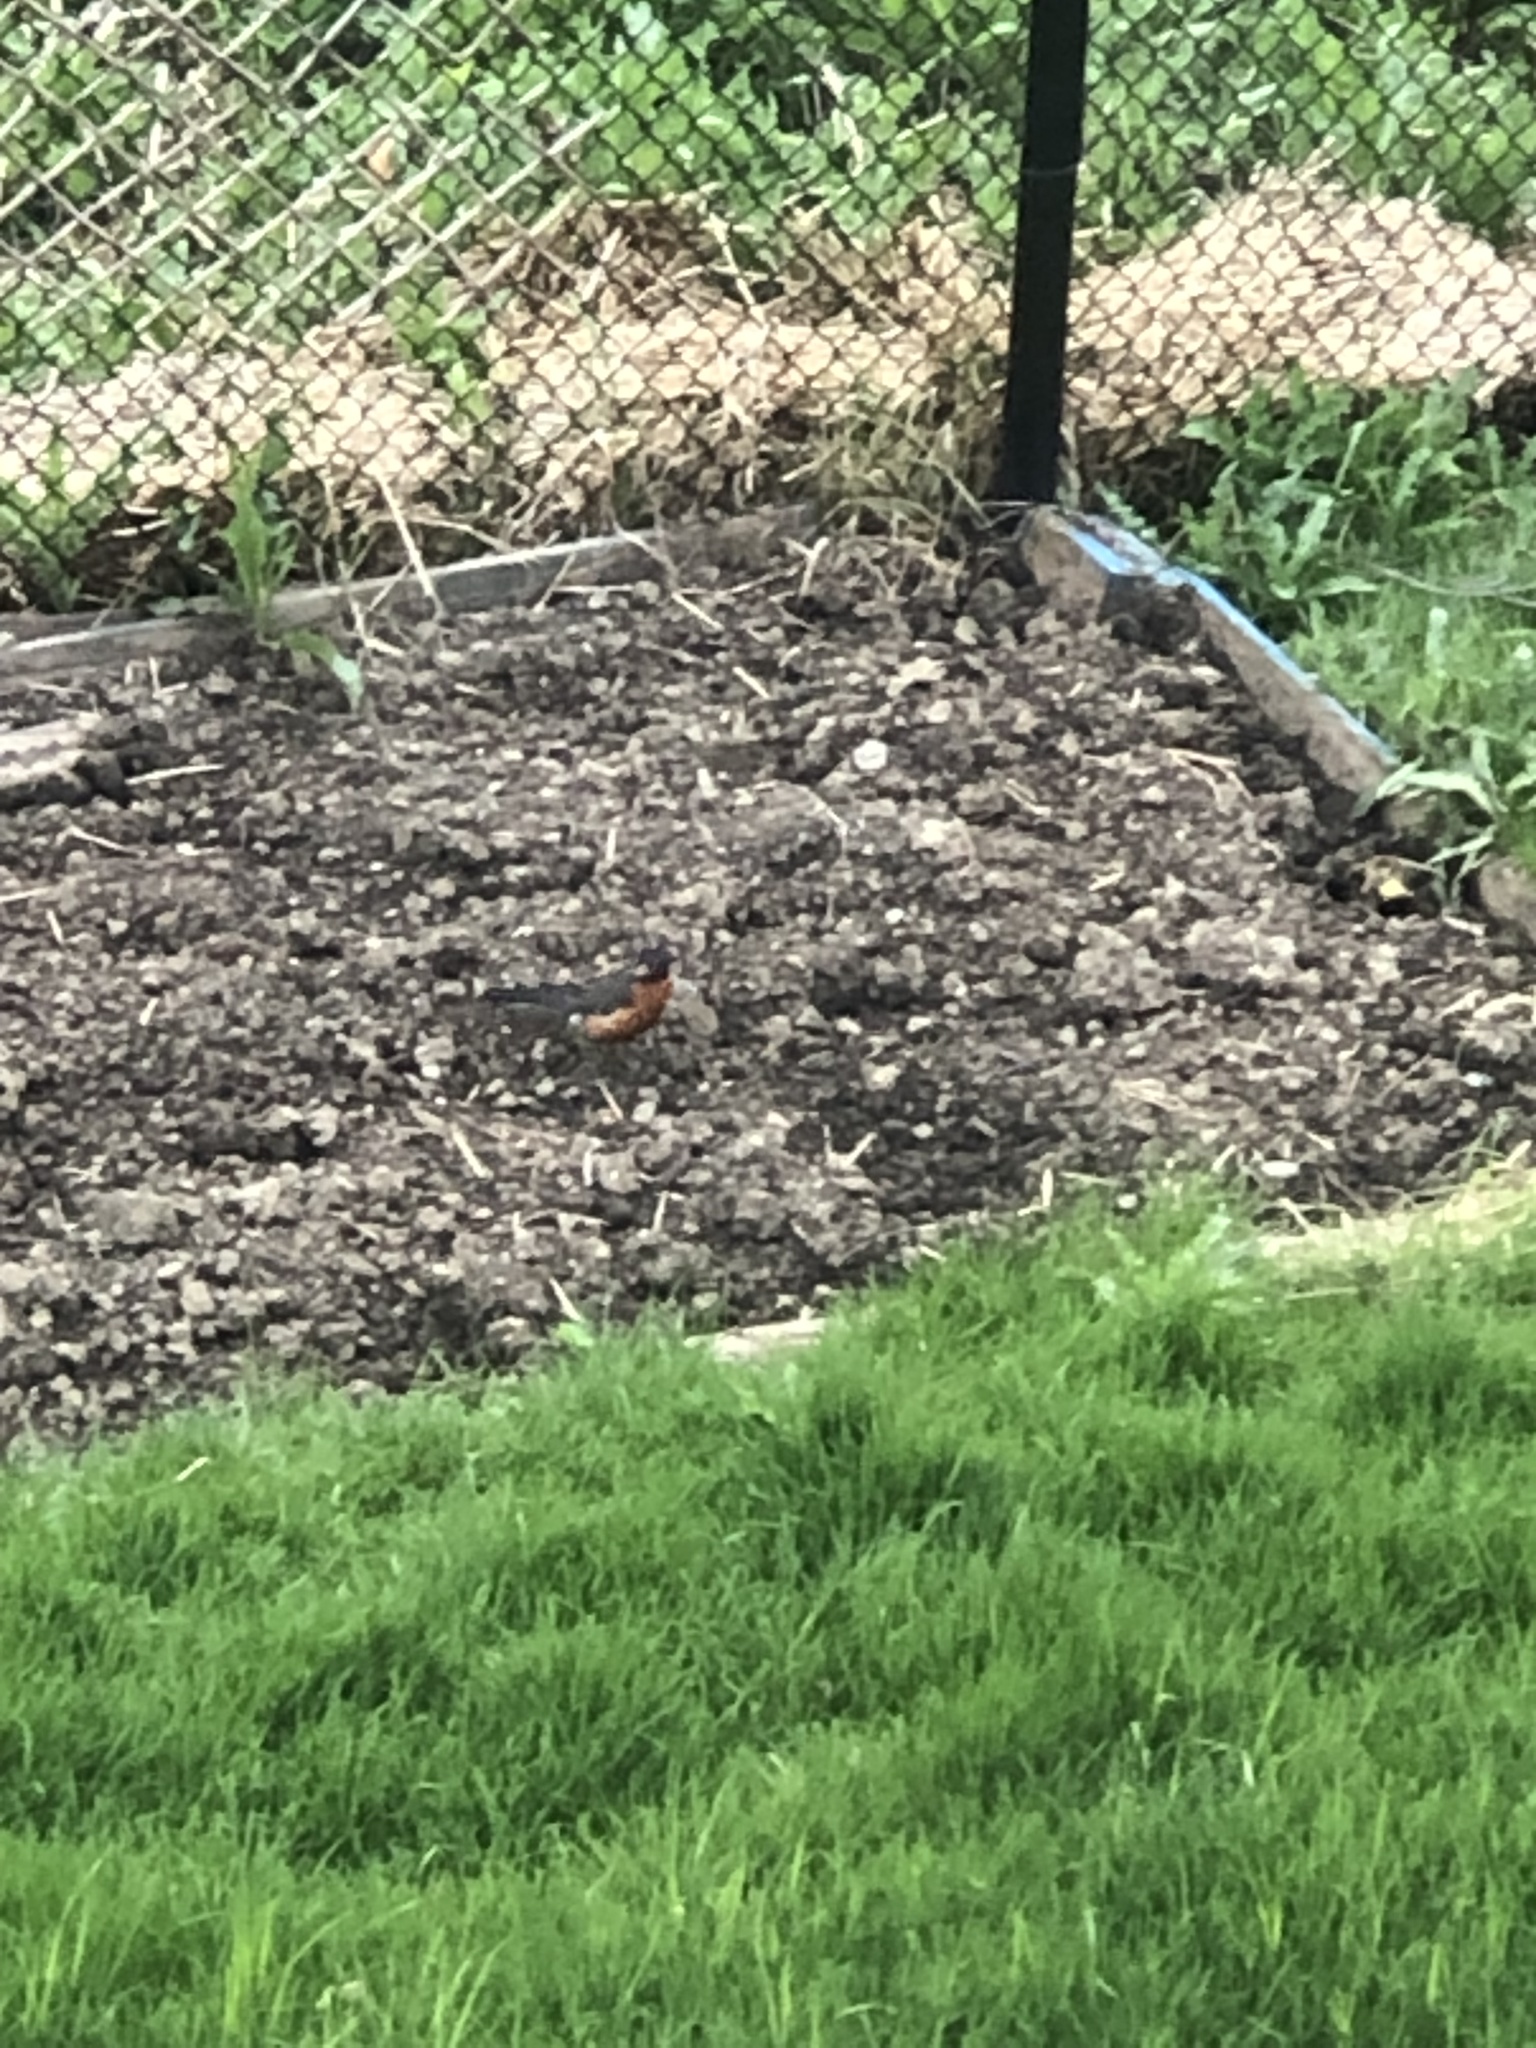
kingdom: Animalia
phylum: Chordata
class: Aves
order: Passeriformes
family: Turdidae
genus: Turdus
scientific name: Turdus migratorius
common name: American robin
